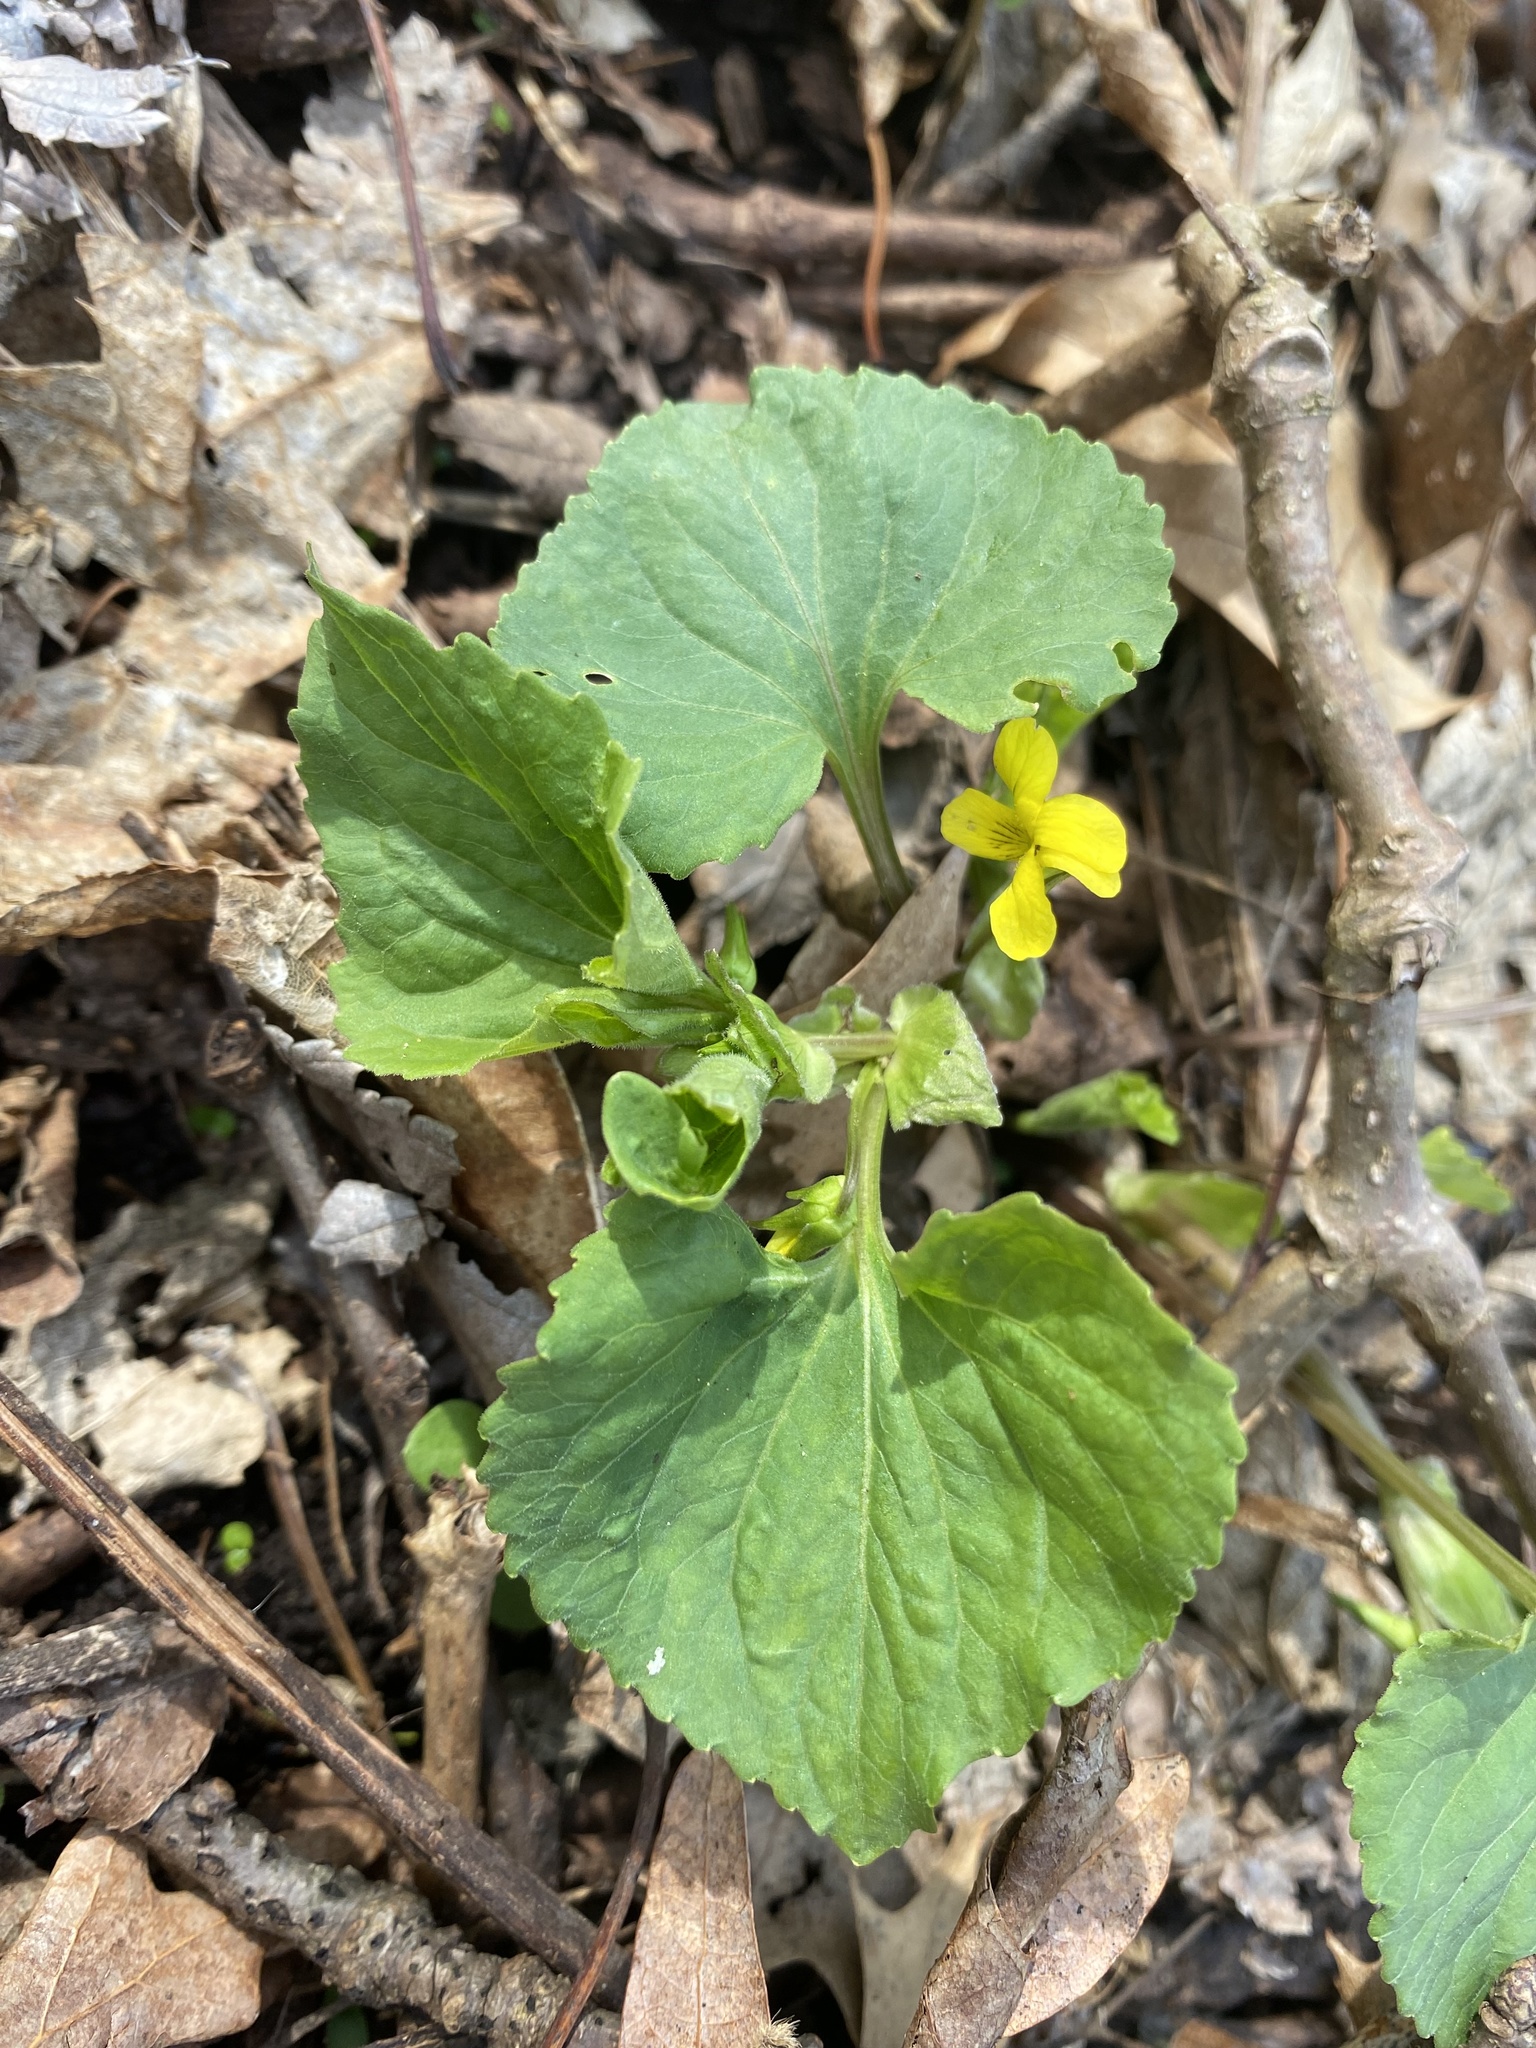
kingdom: Plantae
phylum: Tracheophyta
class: Magnoliopsida
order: Malpighiales
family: Violaceae
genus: Viola
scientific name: Viola eriocarpa
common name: Smooth yellow violet
